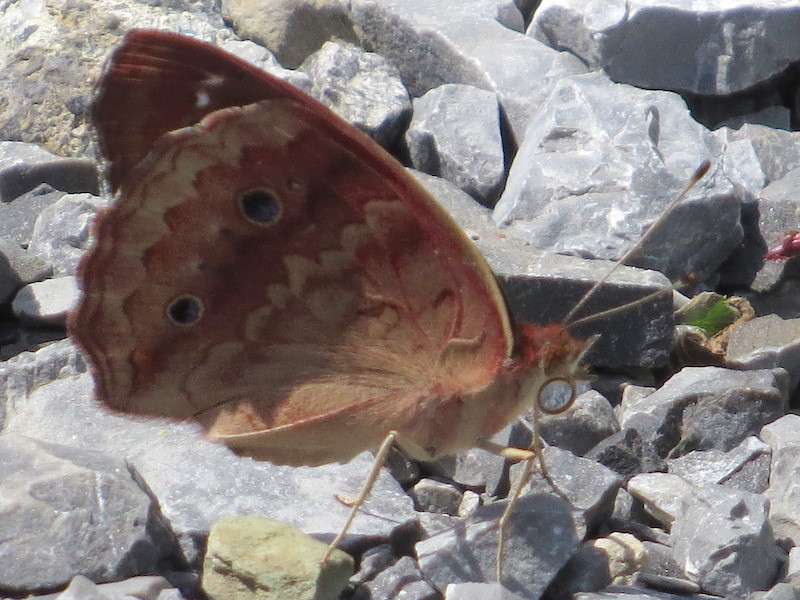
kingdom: Animalia
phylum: Arthropoda
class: Insecta
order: Lepidoptera
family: Nymphalidae
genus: Junonia
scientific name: Junonia coenia
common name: Common buckeye
